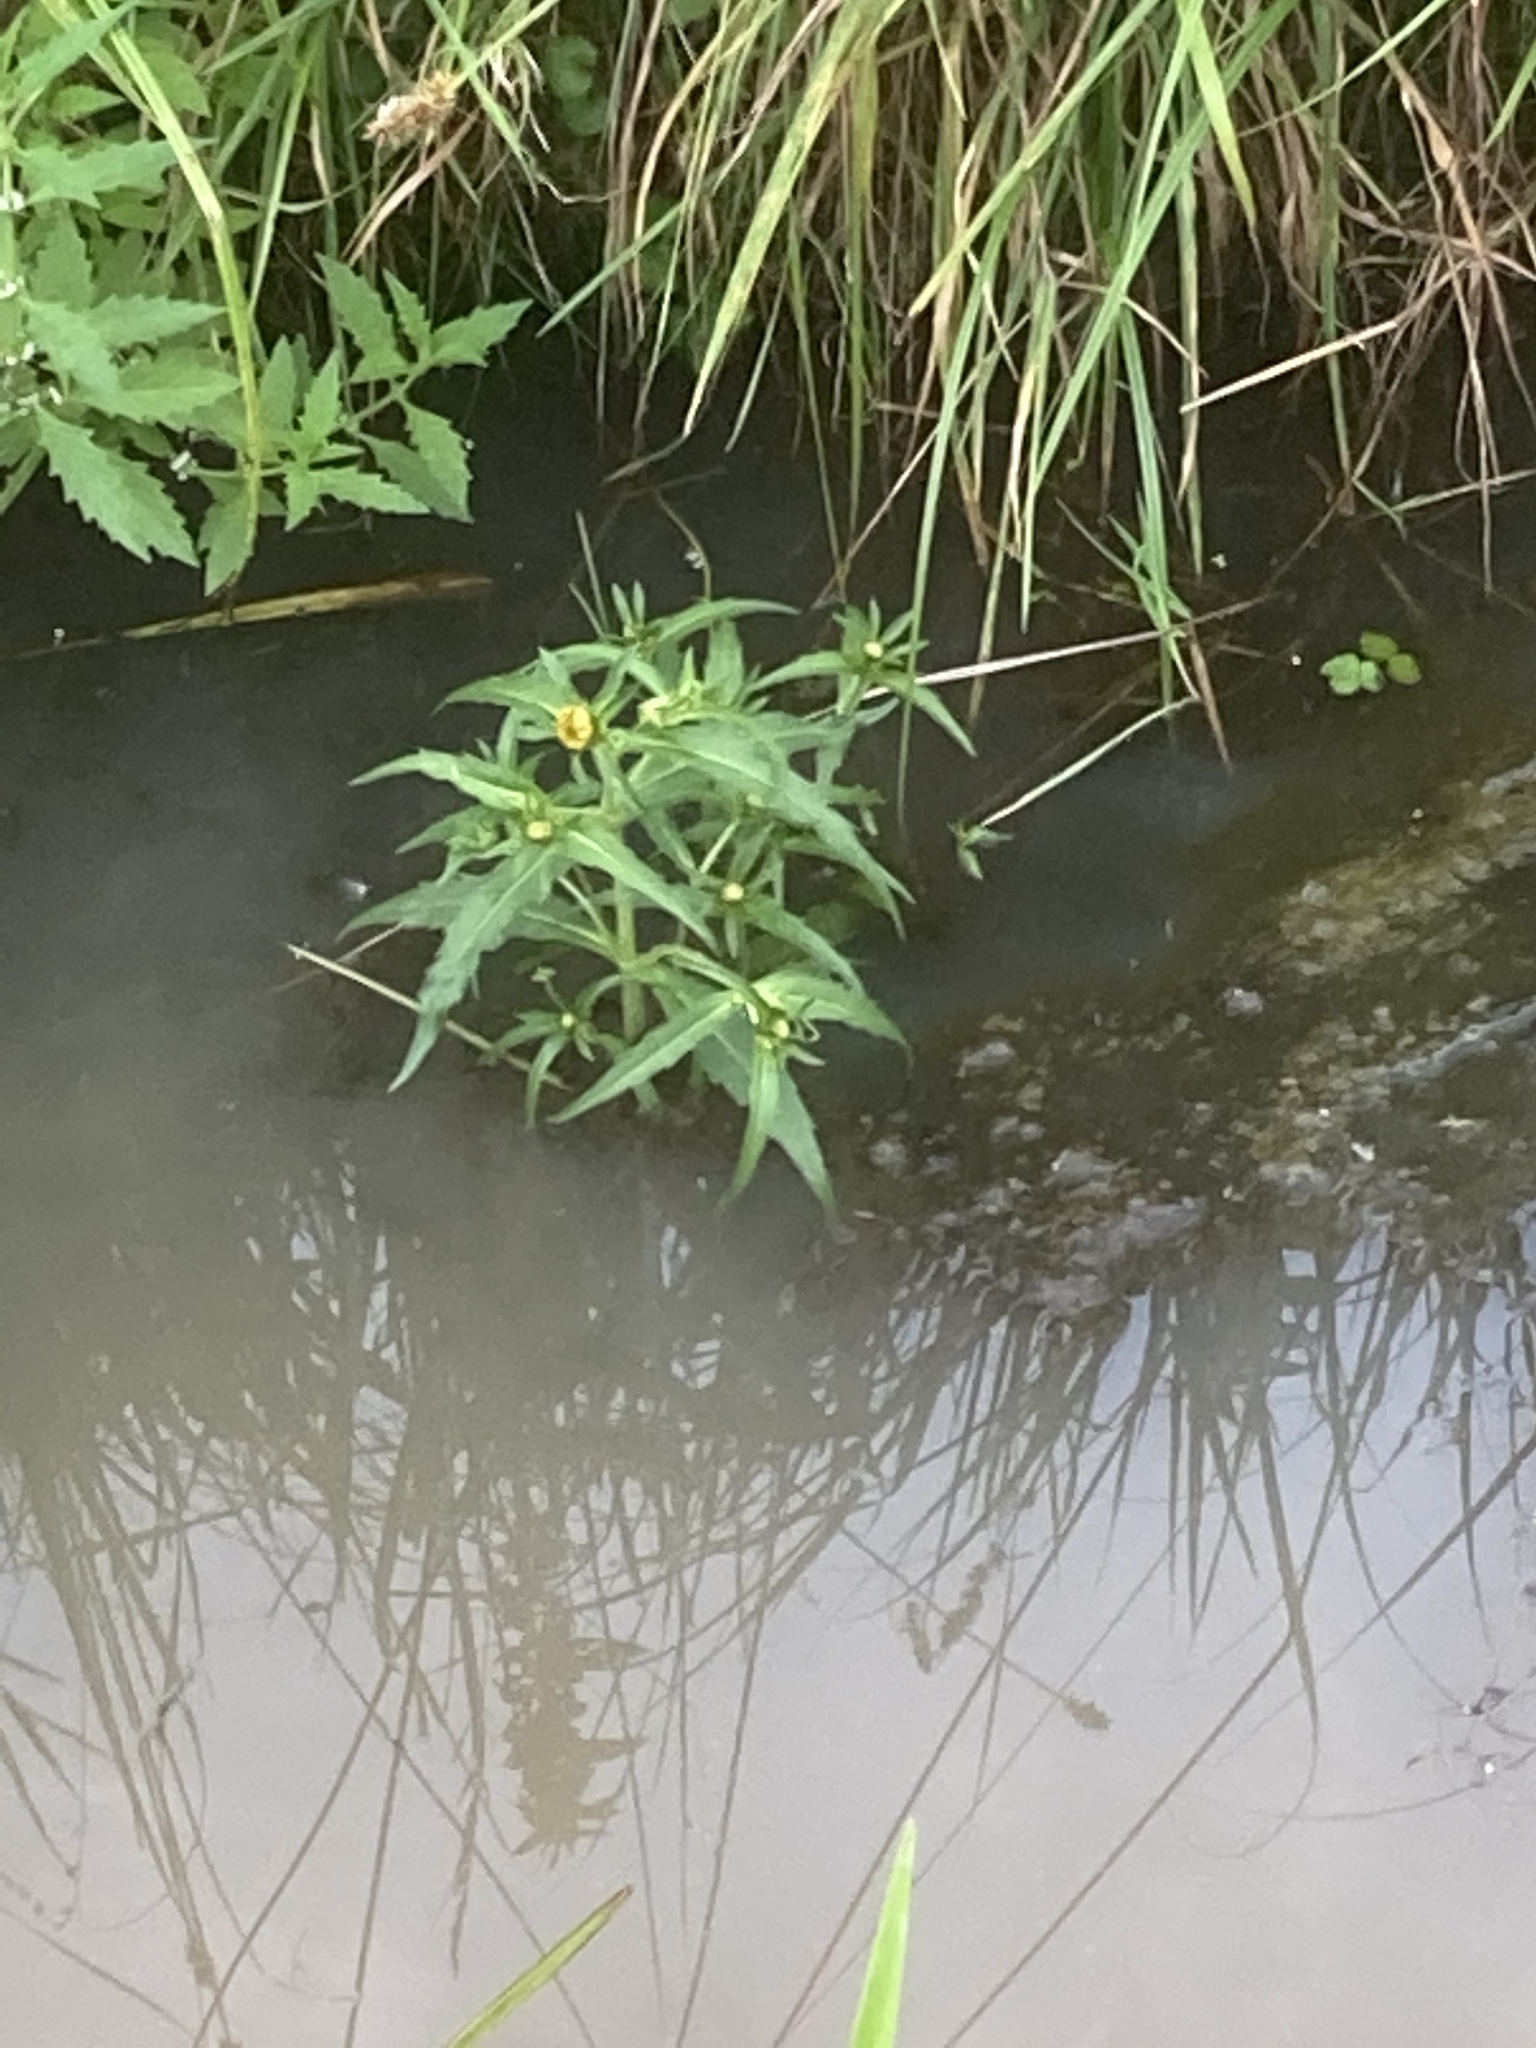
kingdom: Plantae
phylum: Tracheophyta
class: Magnoliopsida
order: Asterales
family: Asteraceae
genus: Bidens
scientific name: Bidens cernua
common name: Nodding bur-marigold
